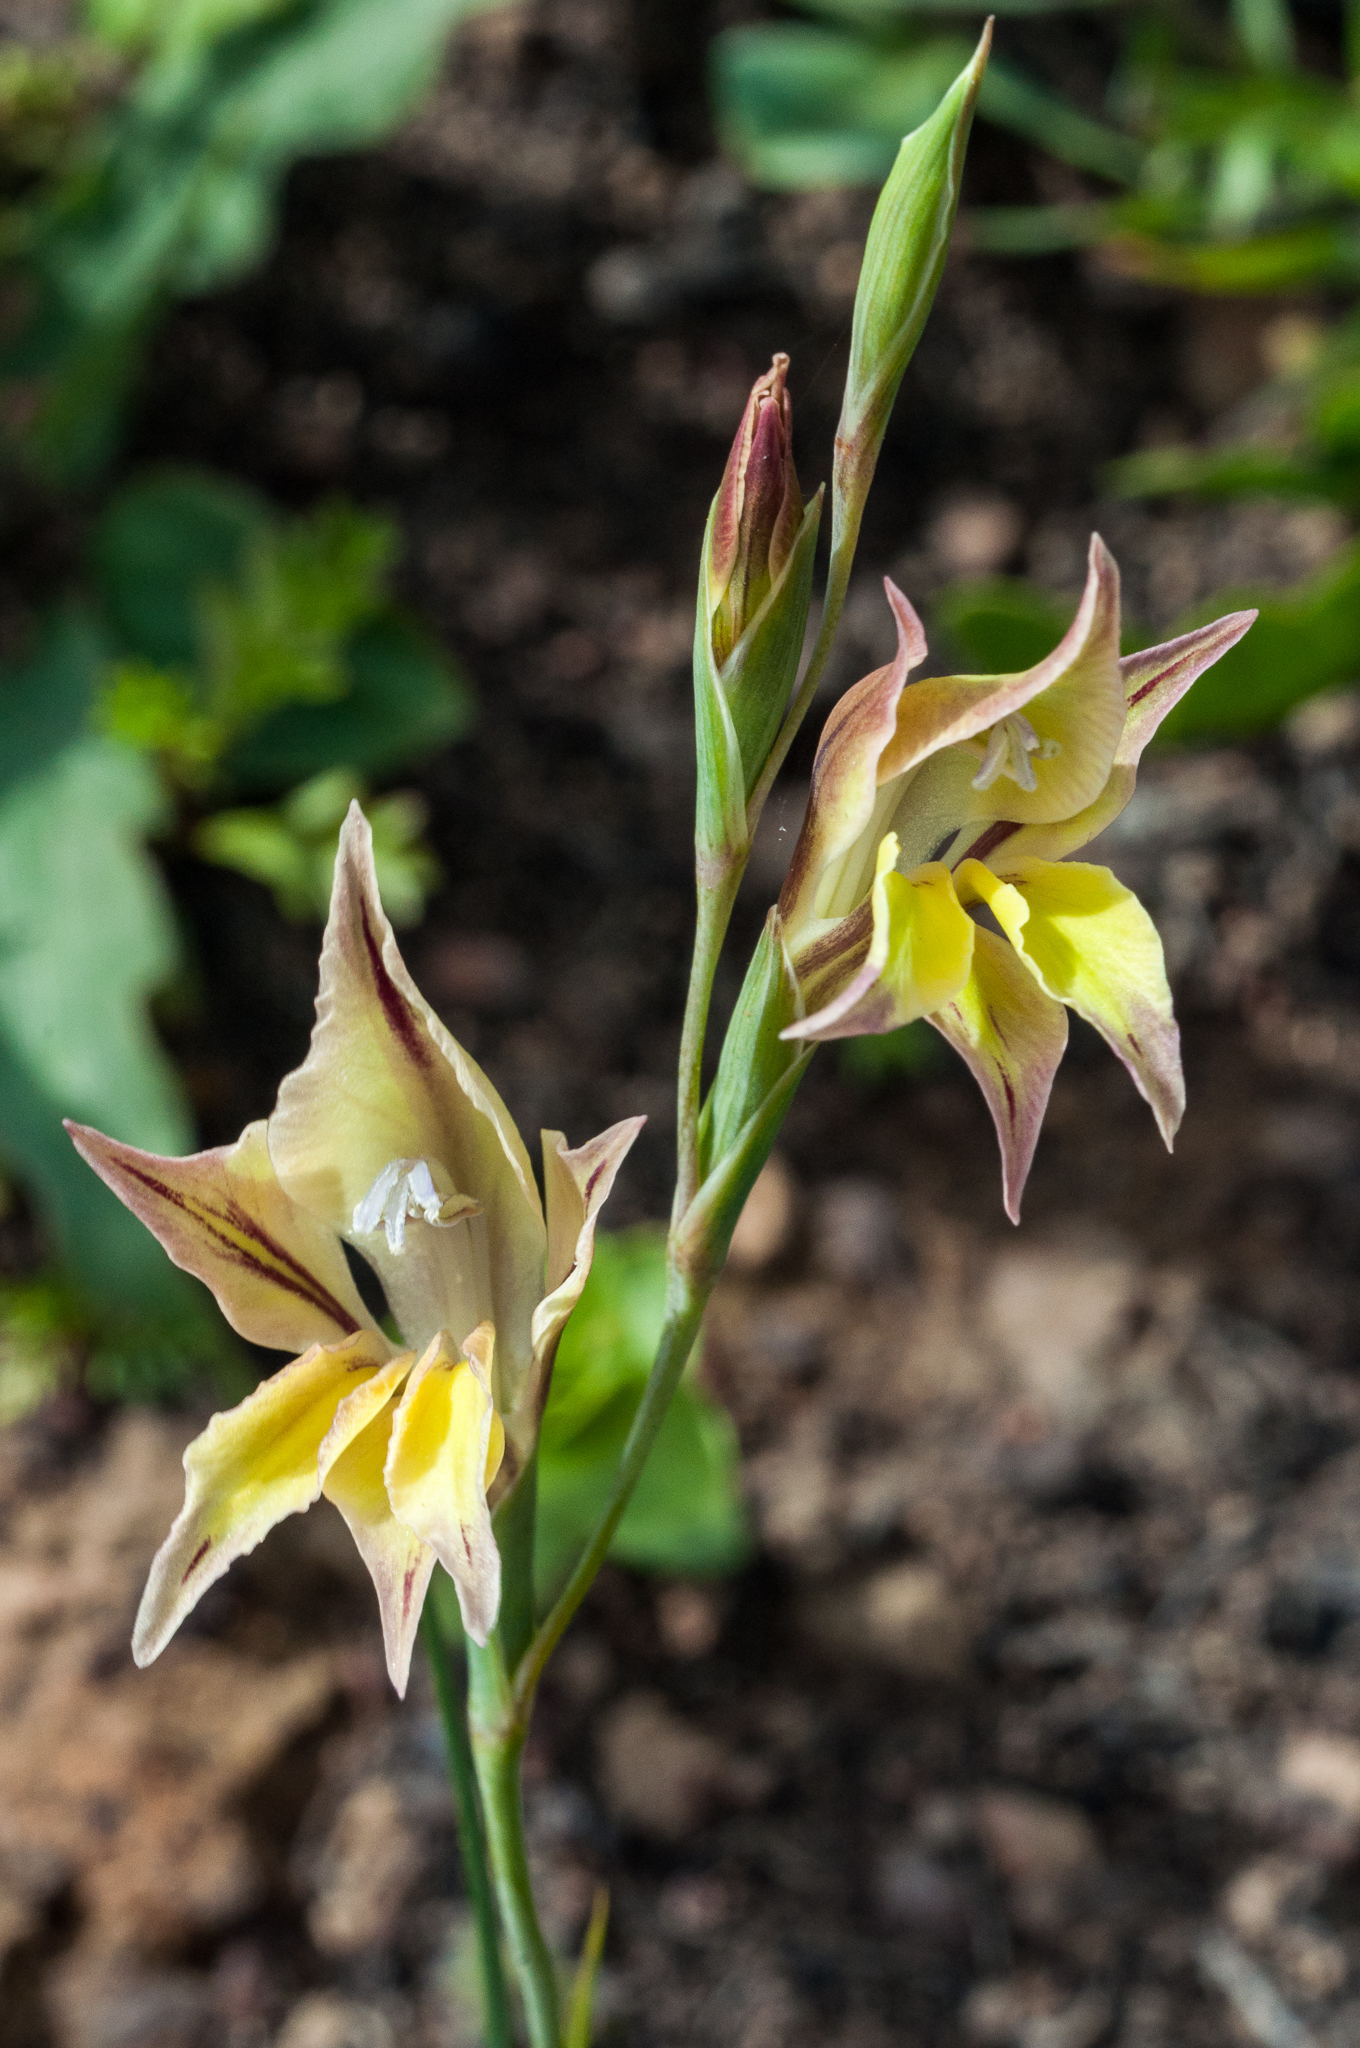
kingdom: Plantae
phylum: Tracheophyta
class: Liliopsida
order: Asparagales
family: Iridaceae
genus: Gladiolus
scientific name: Gladiolus permeabilis
